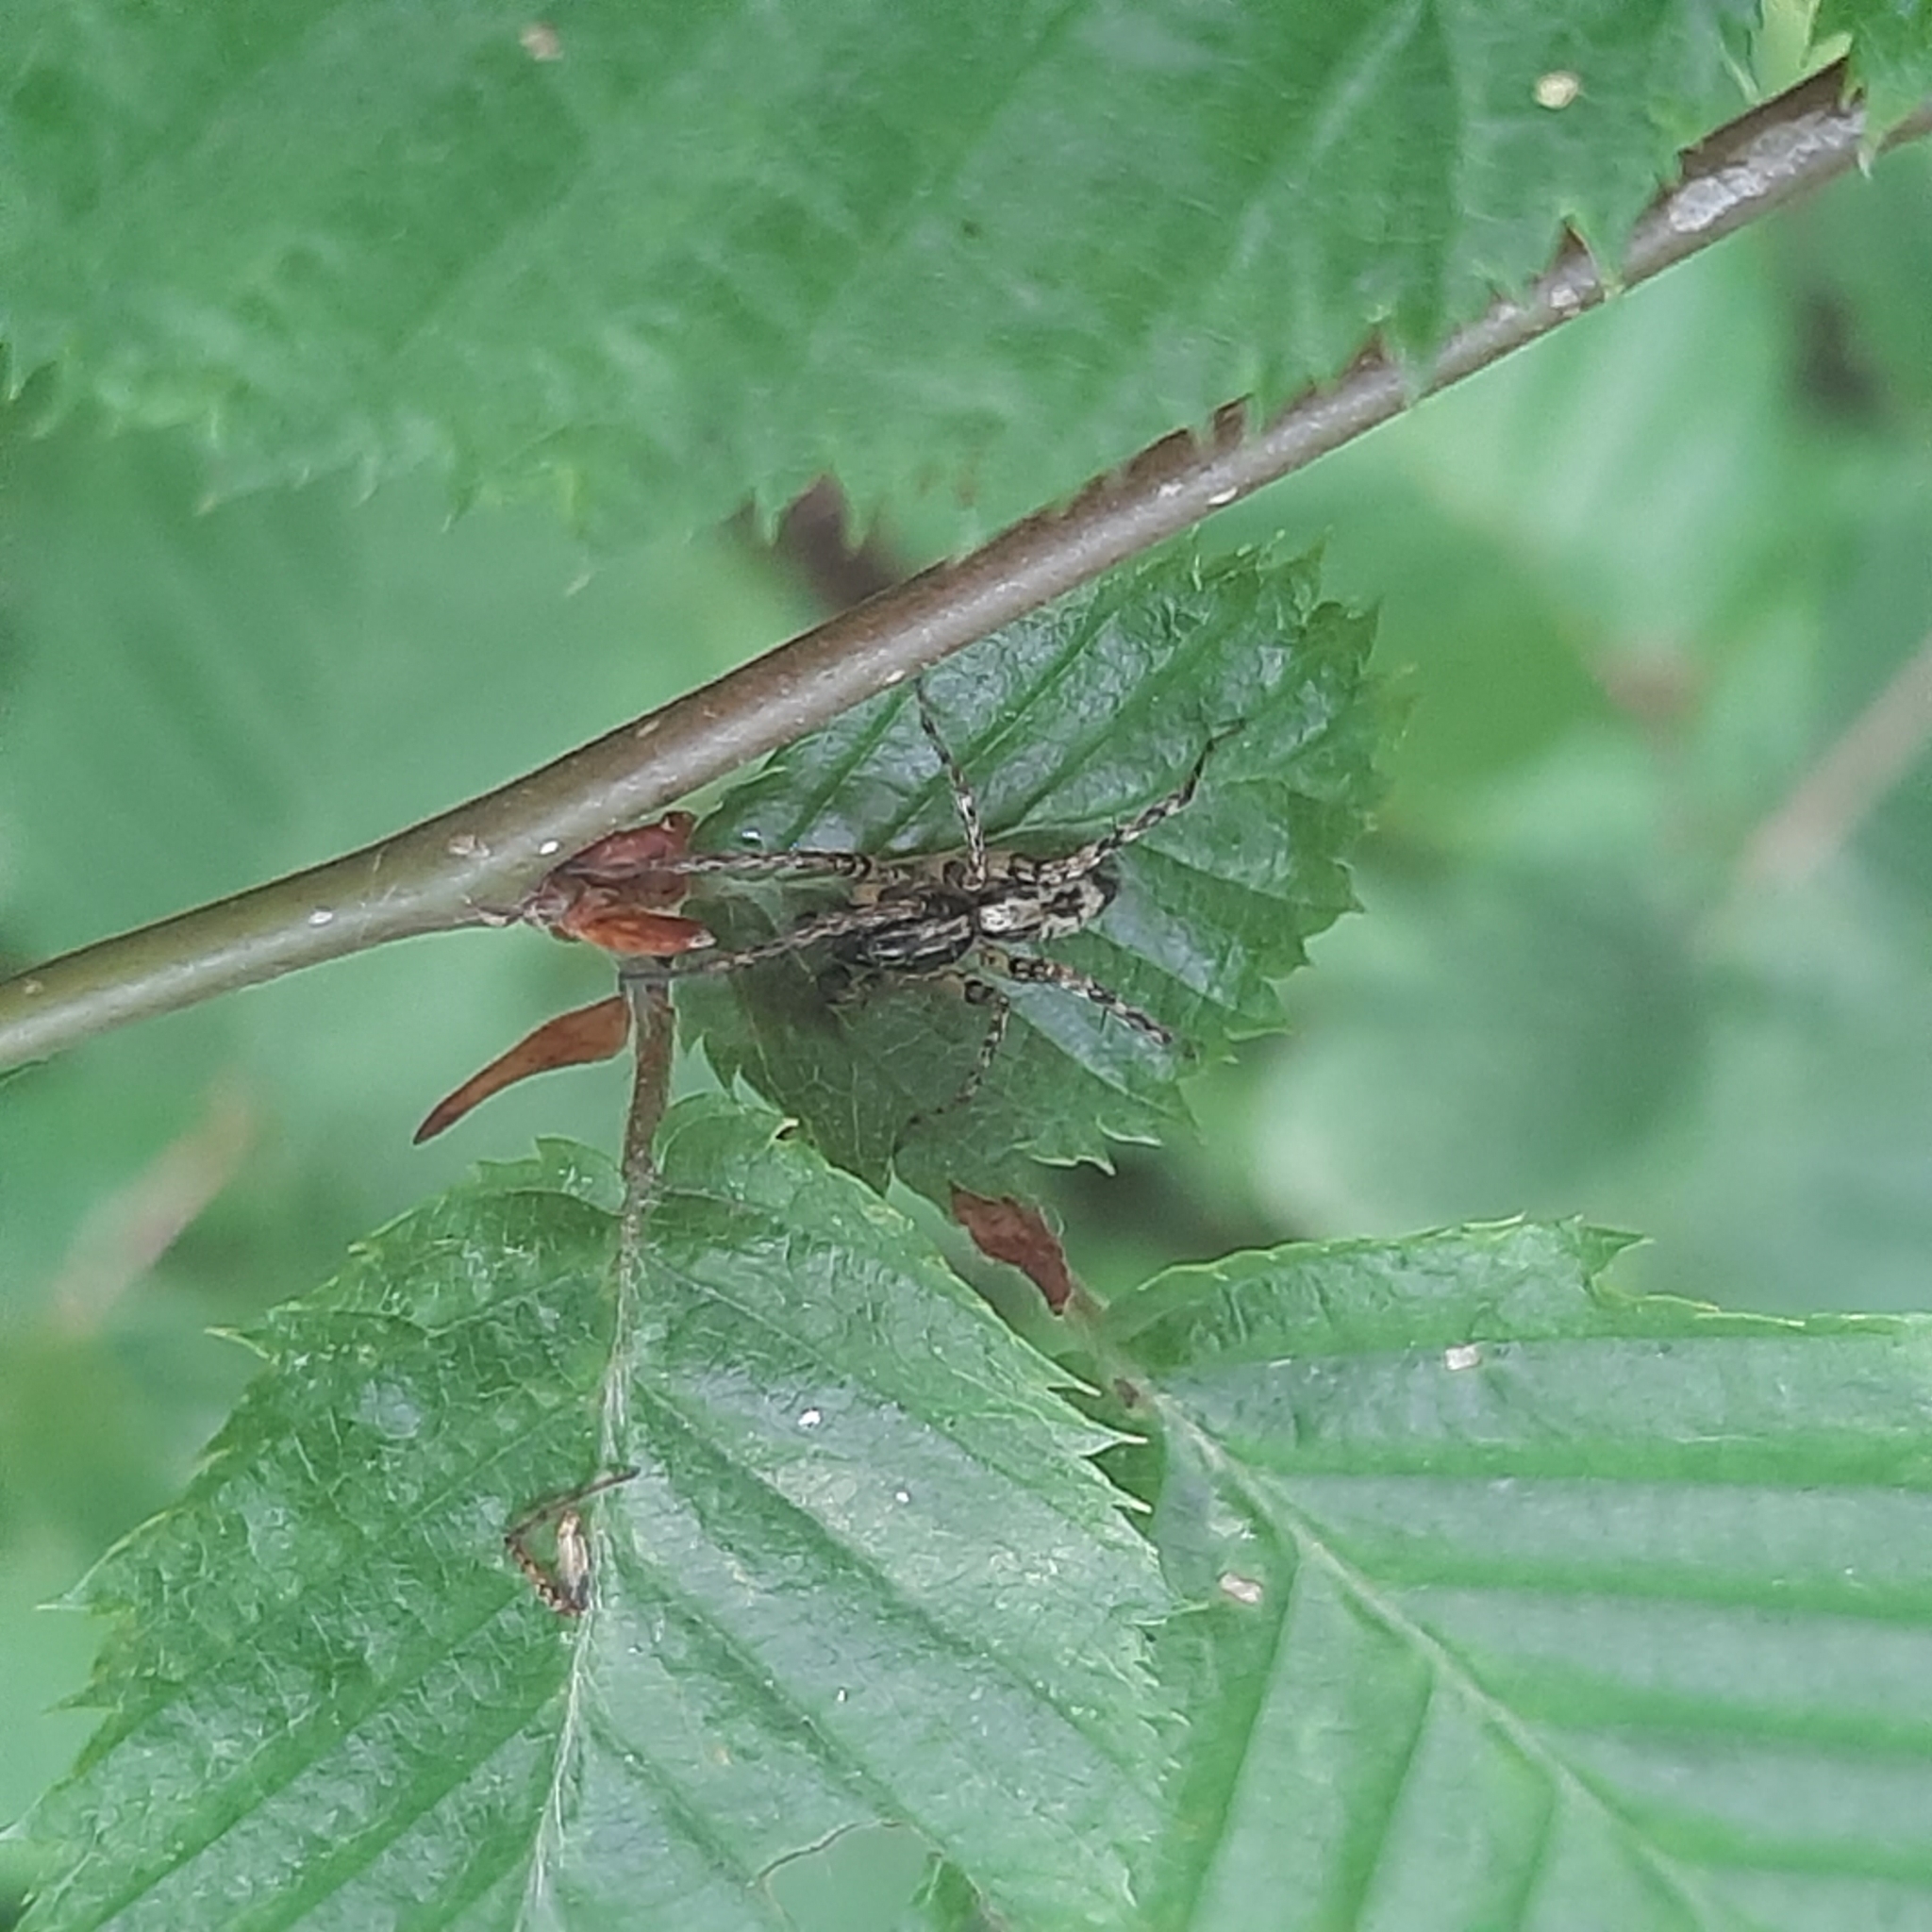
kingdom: Animalia
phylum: Arthropoda
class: Arachnida
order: Araneae
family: Anyphaenidae
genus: Anyphaena
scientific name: Anyphaena accentuata
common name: Buzzing spider
